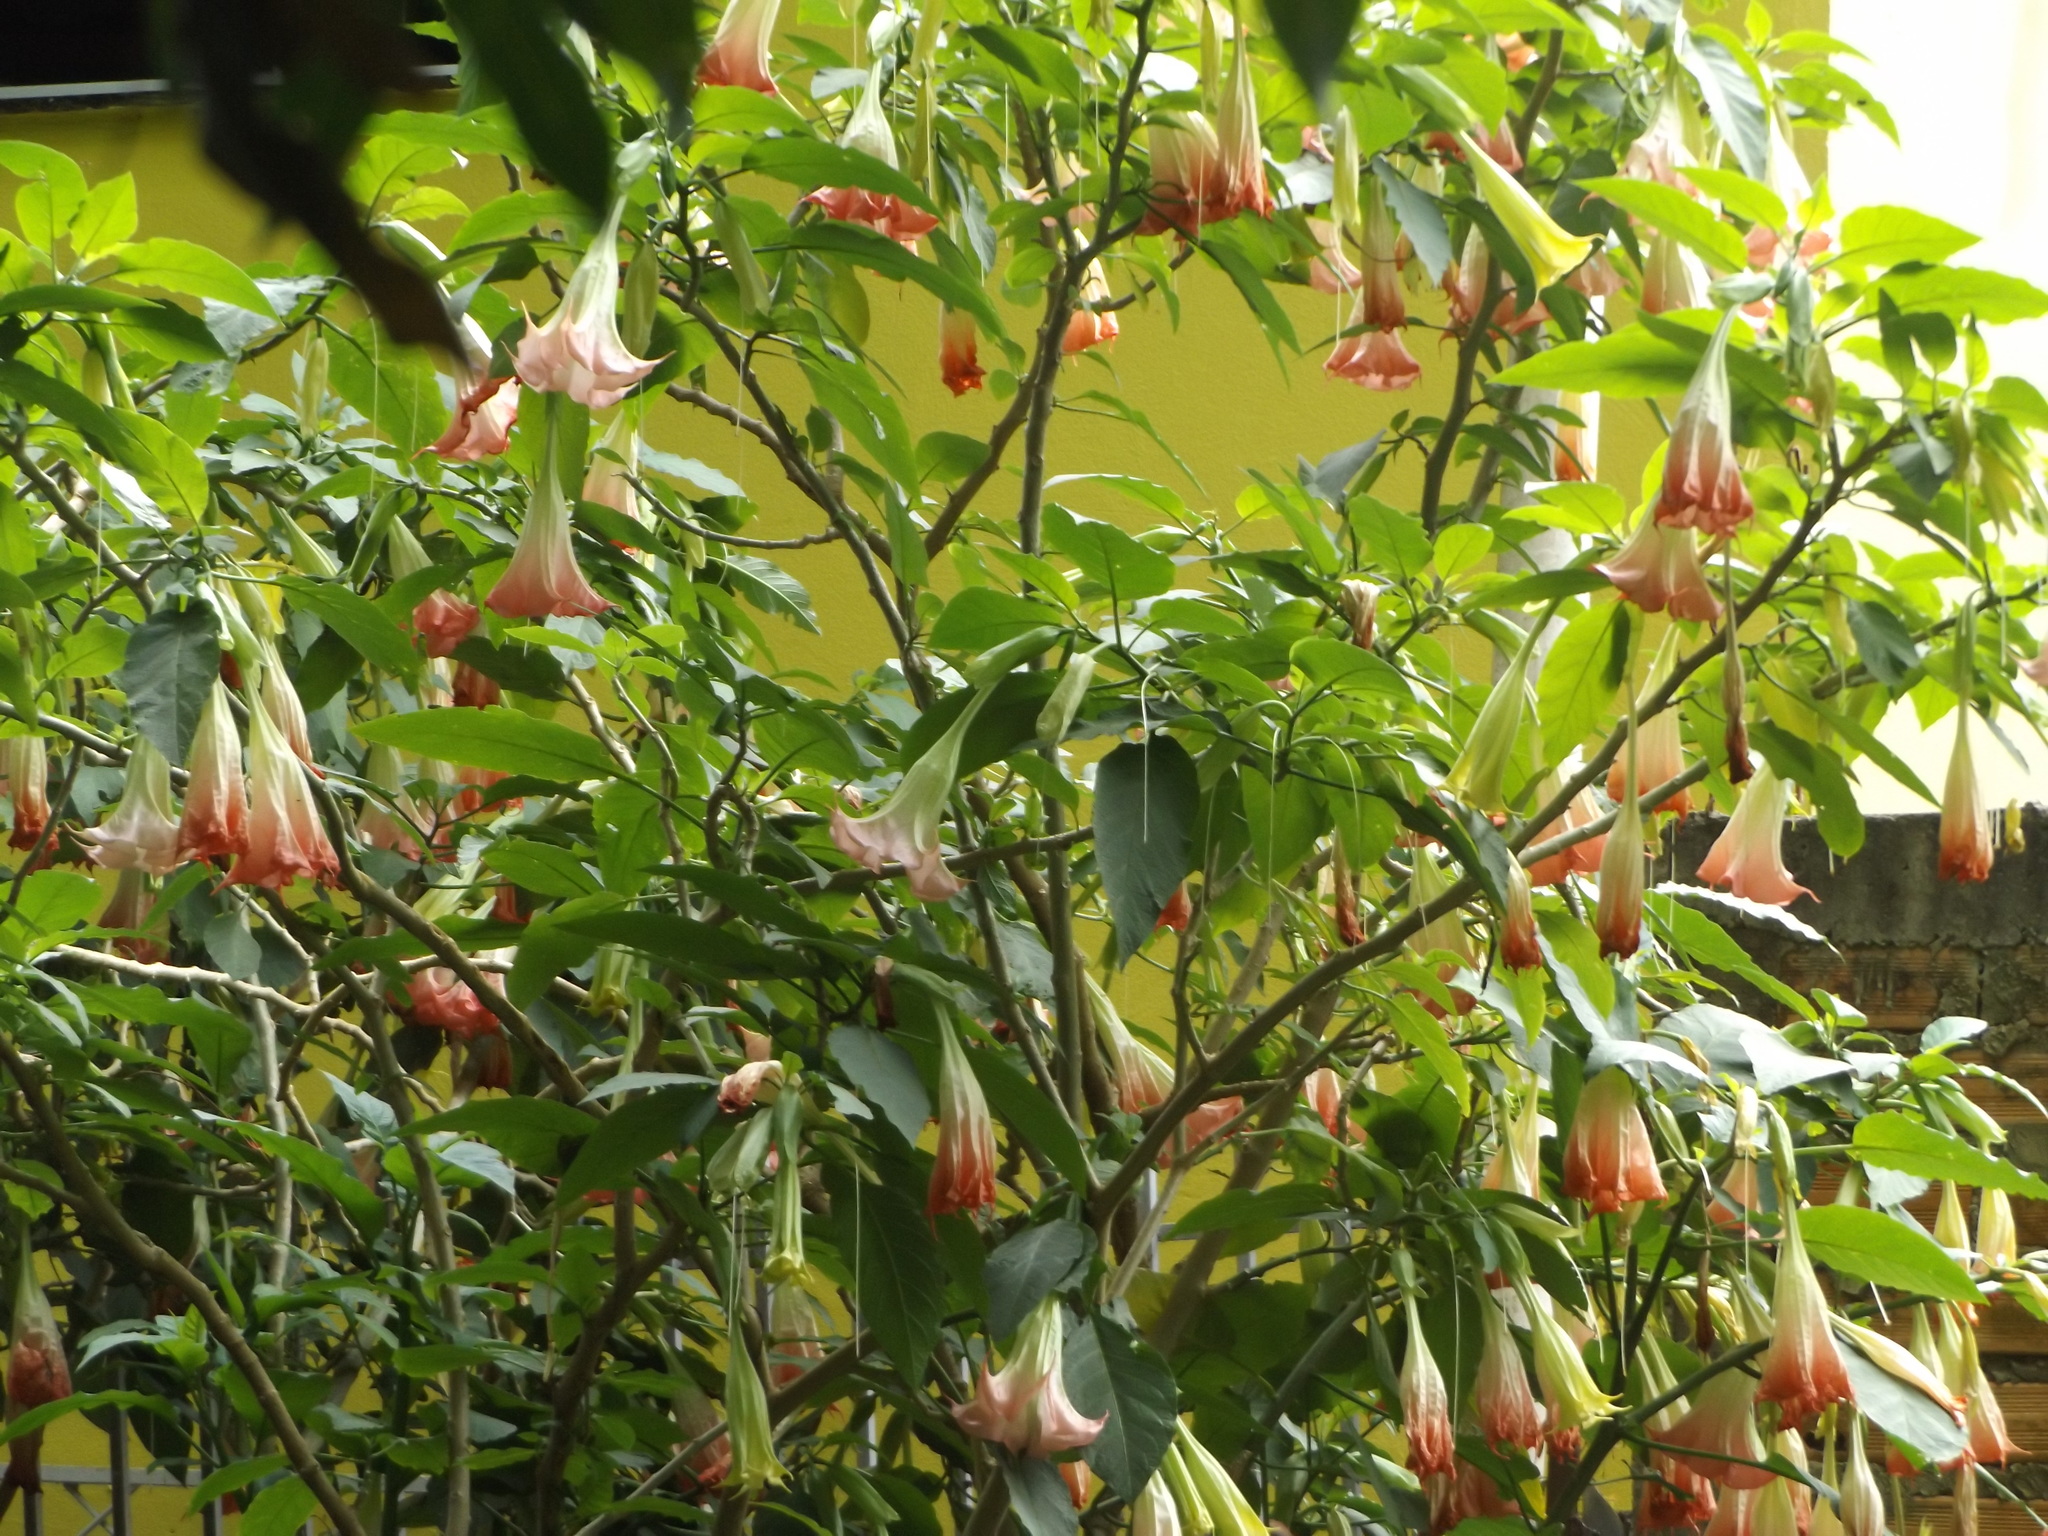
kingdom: Plantae
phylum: Tracheophyta
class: Magnoliopsida
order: Solanales
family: Solanaceae
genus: Brugmansia
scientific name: Brugmansia suaveolens
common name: Angel's tears
